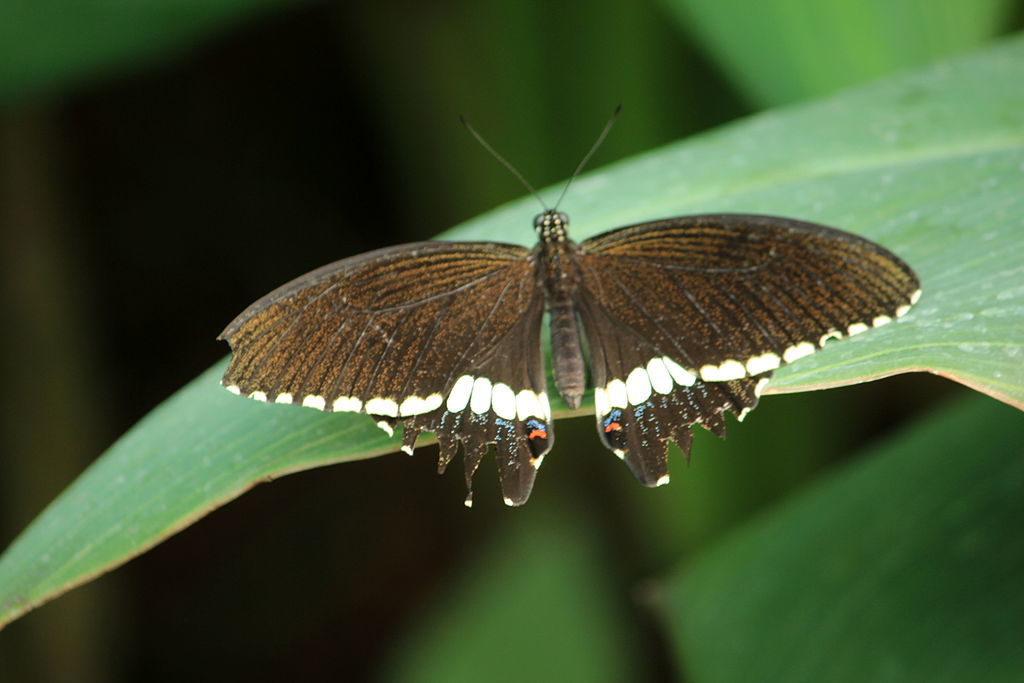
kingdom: Animalia
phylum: Arthropoda
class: Insecta
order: Lepidoptera
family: Papilionidae
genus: Papilio
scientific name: Papilio polytes
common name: Common mormon
